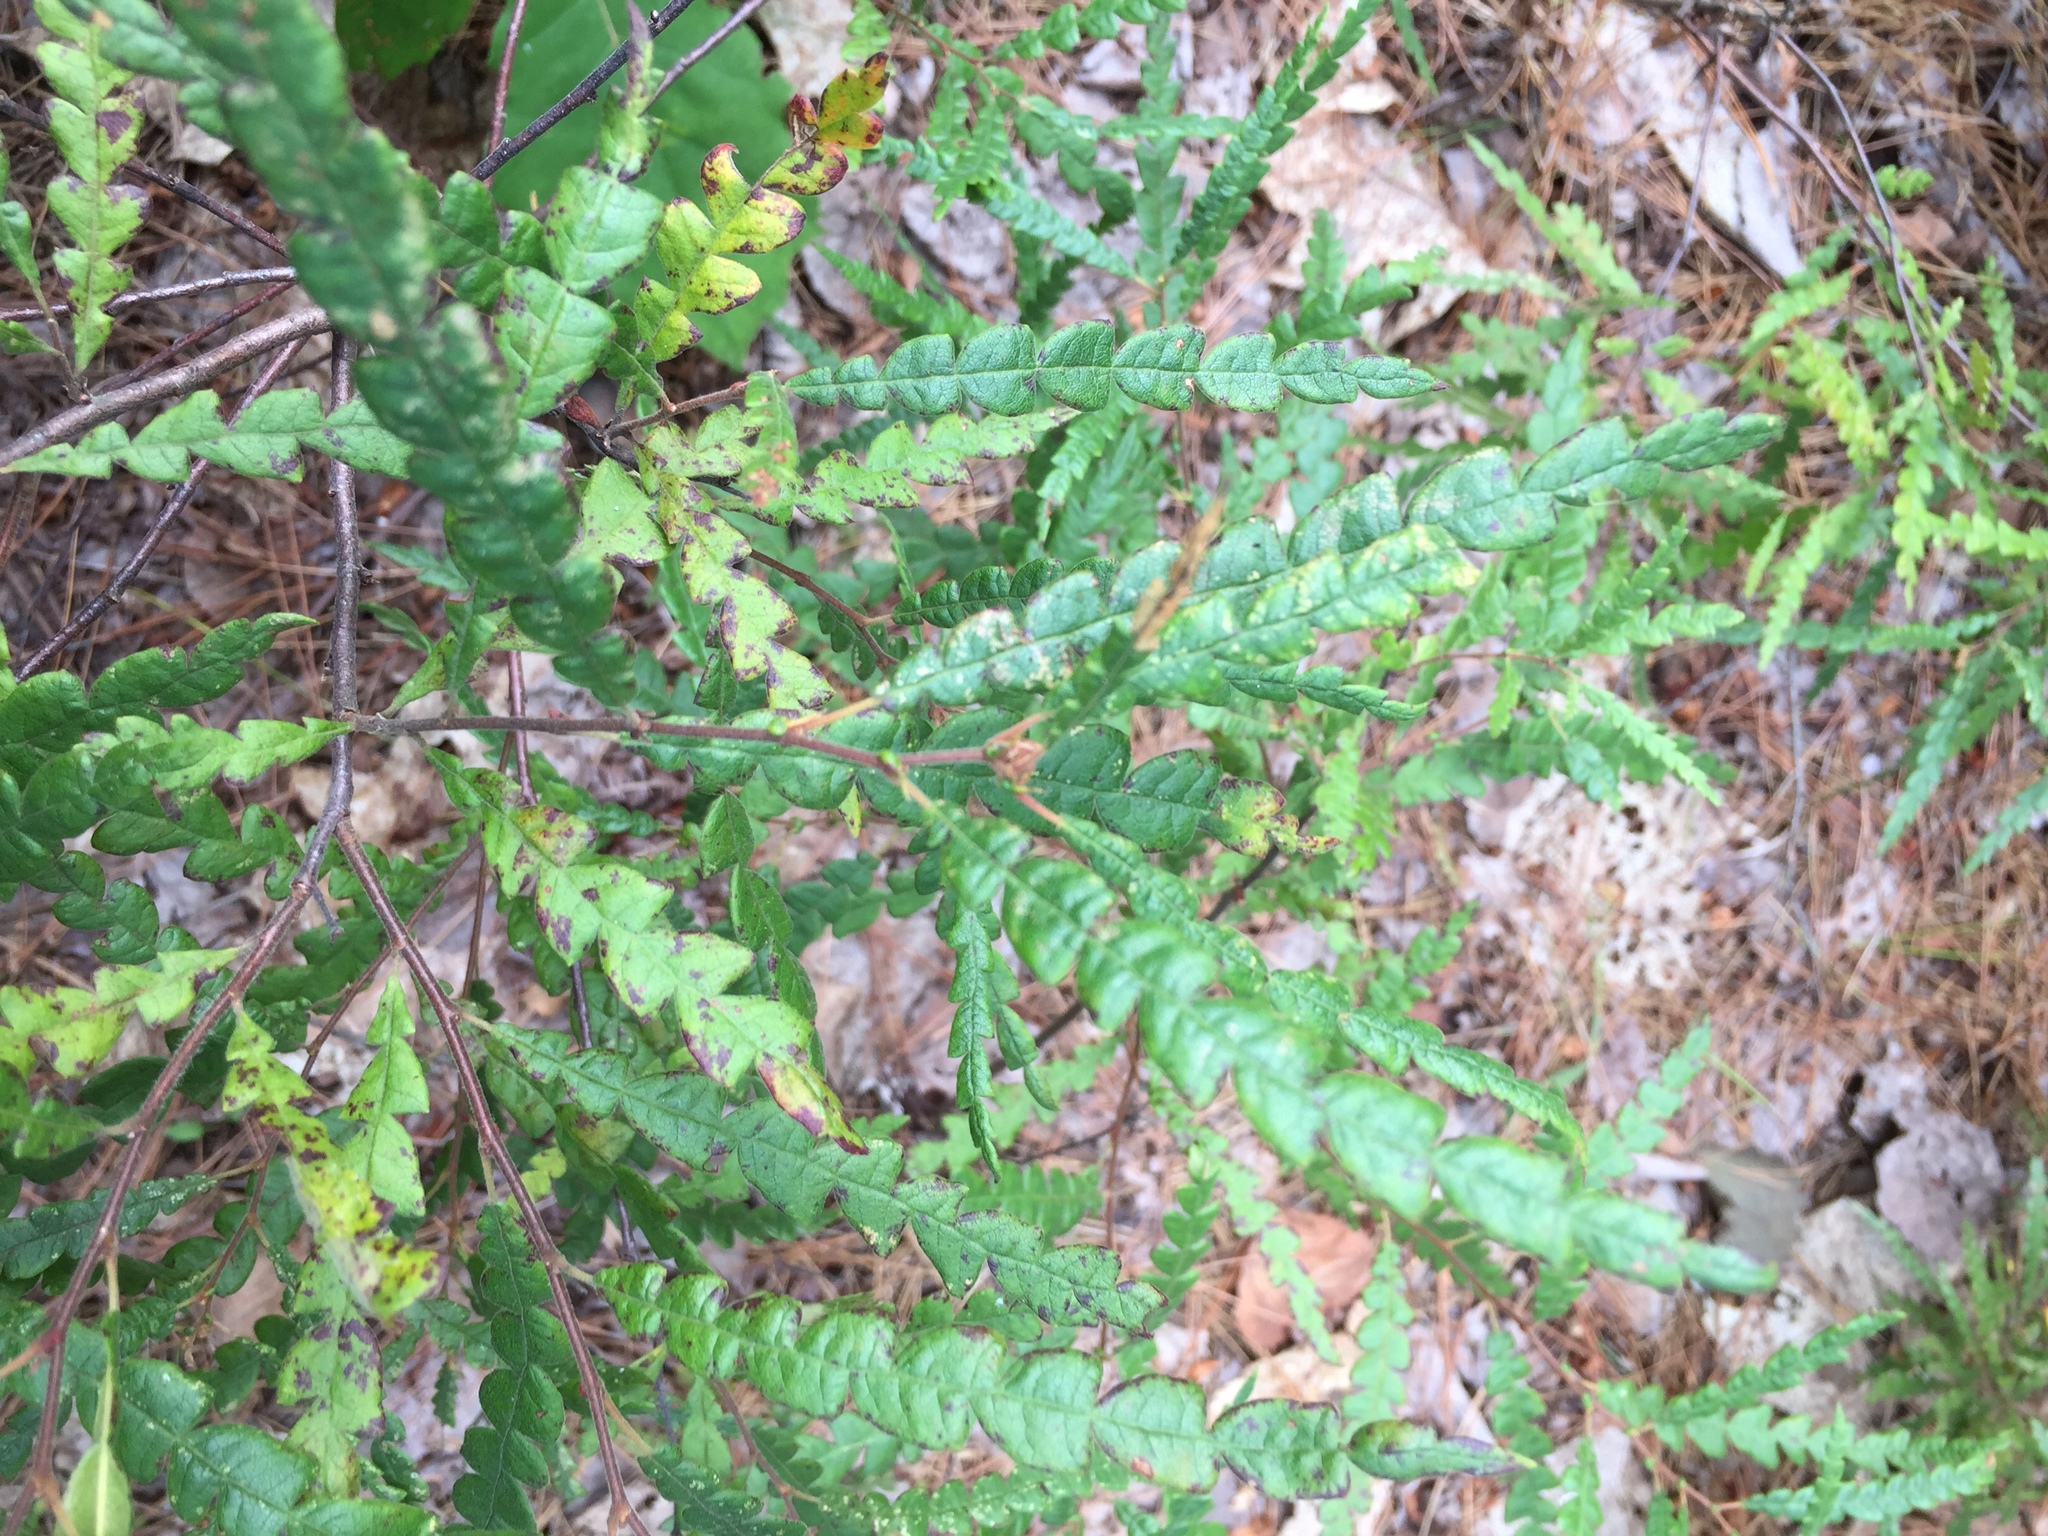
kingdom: Plantae
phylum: Tracheophyta
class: Magnoliopsida
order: Fagales
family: Myricaceae
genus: Comptonia
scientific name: Comptonia peregrina
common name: Sweet-fern
